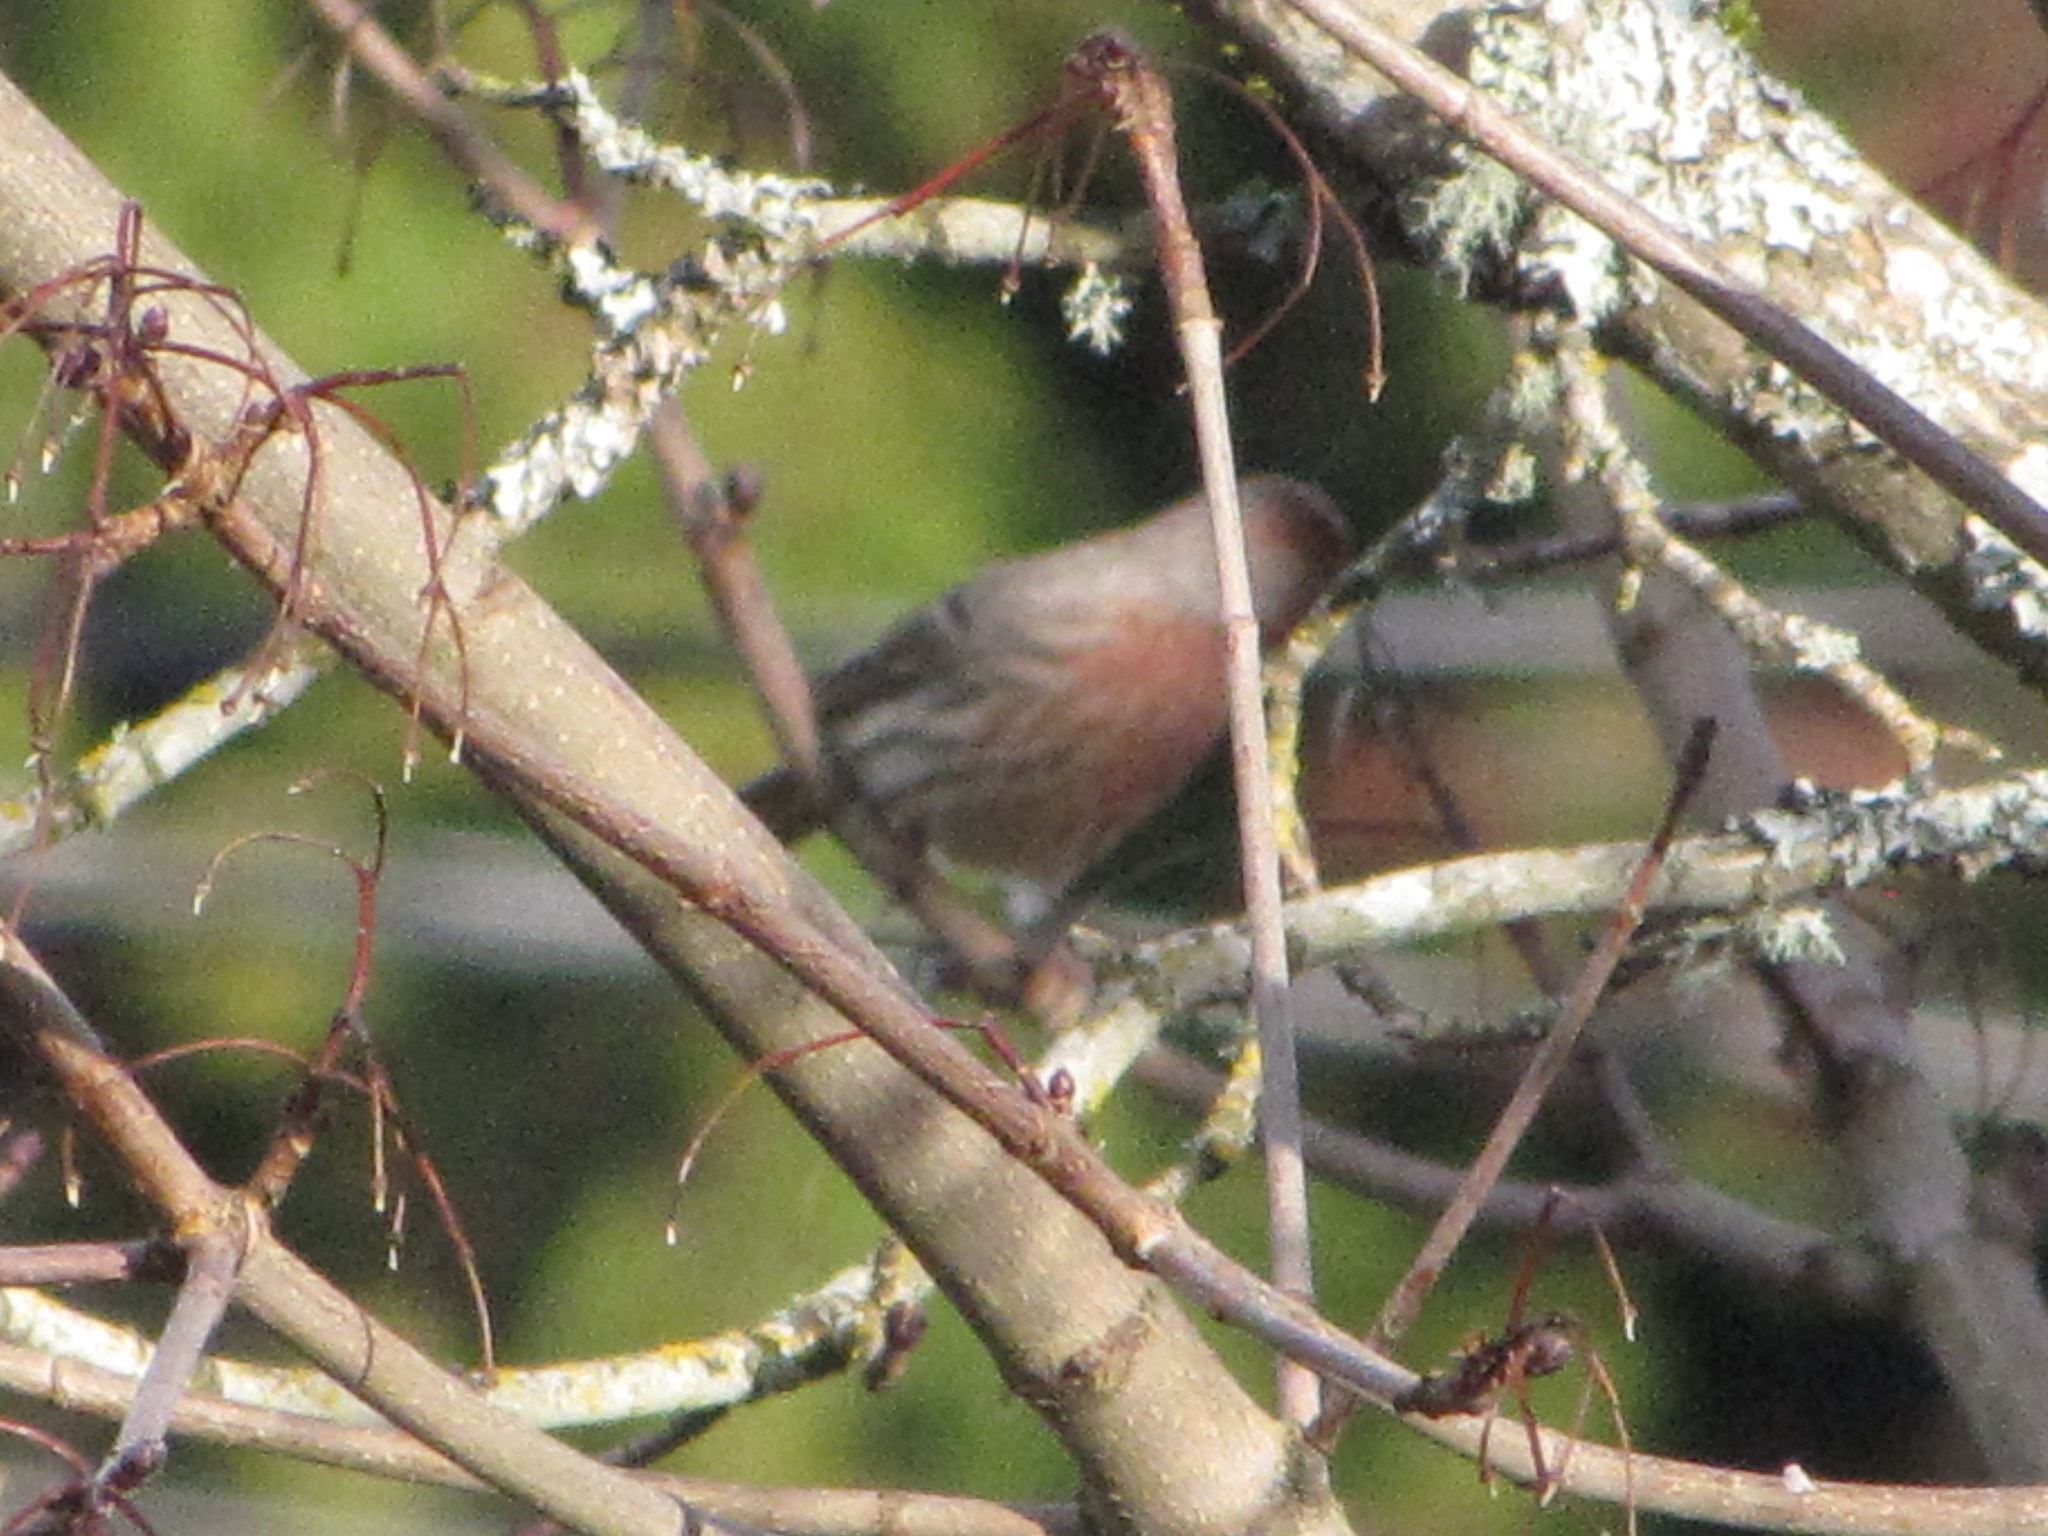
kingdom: Animalia
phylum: Chordata
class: Aves
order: Passeriformes
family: Fringillidae
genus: Haemorhous
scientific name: Haemorhous mexicanus
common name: House finch
